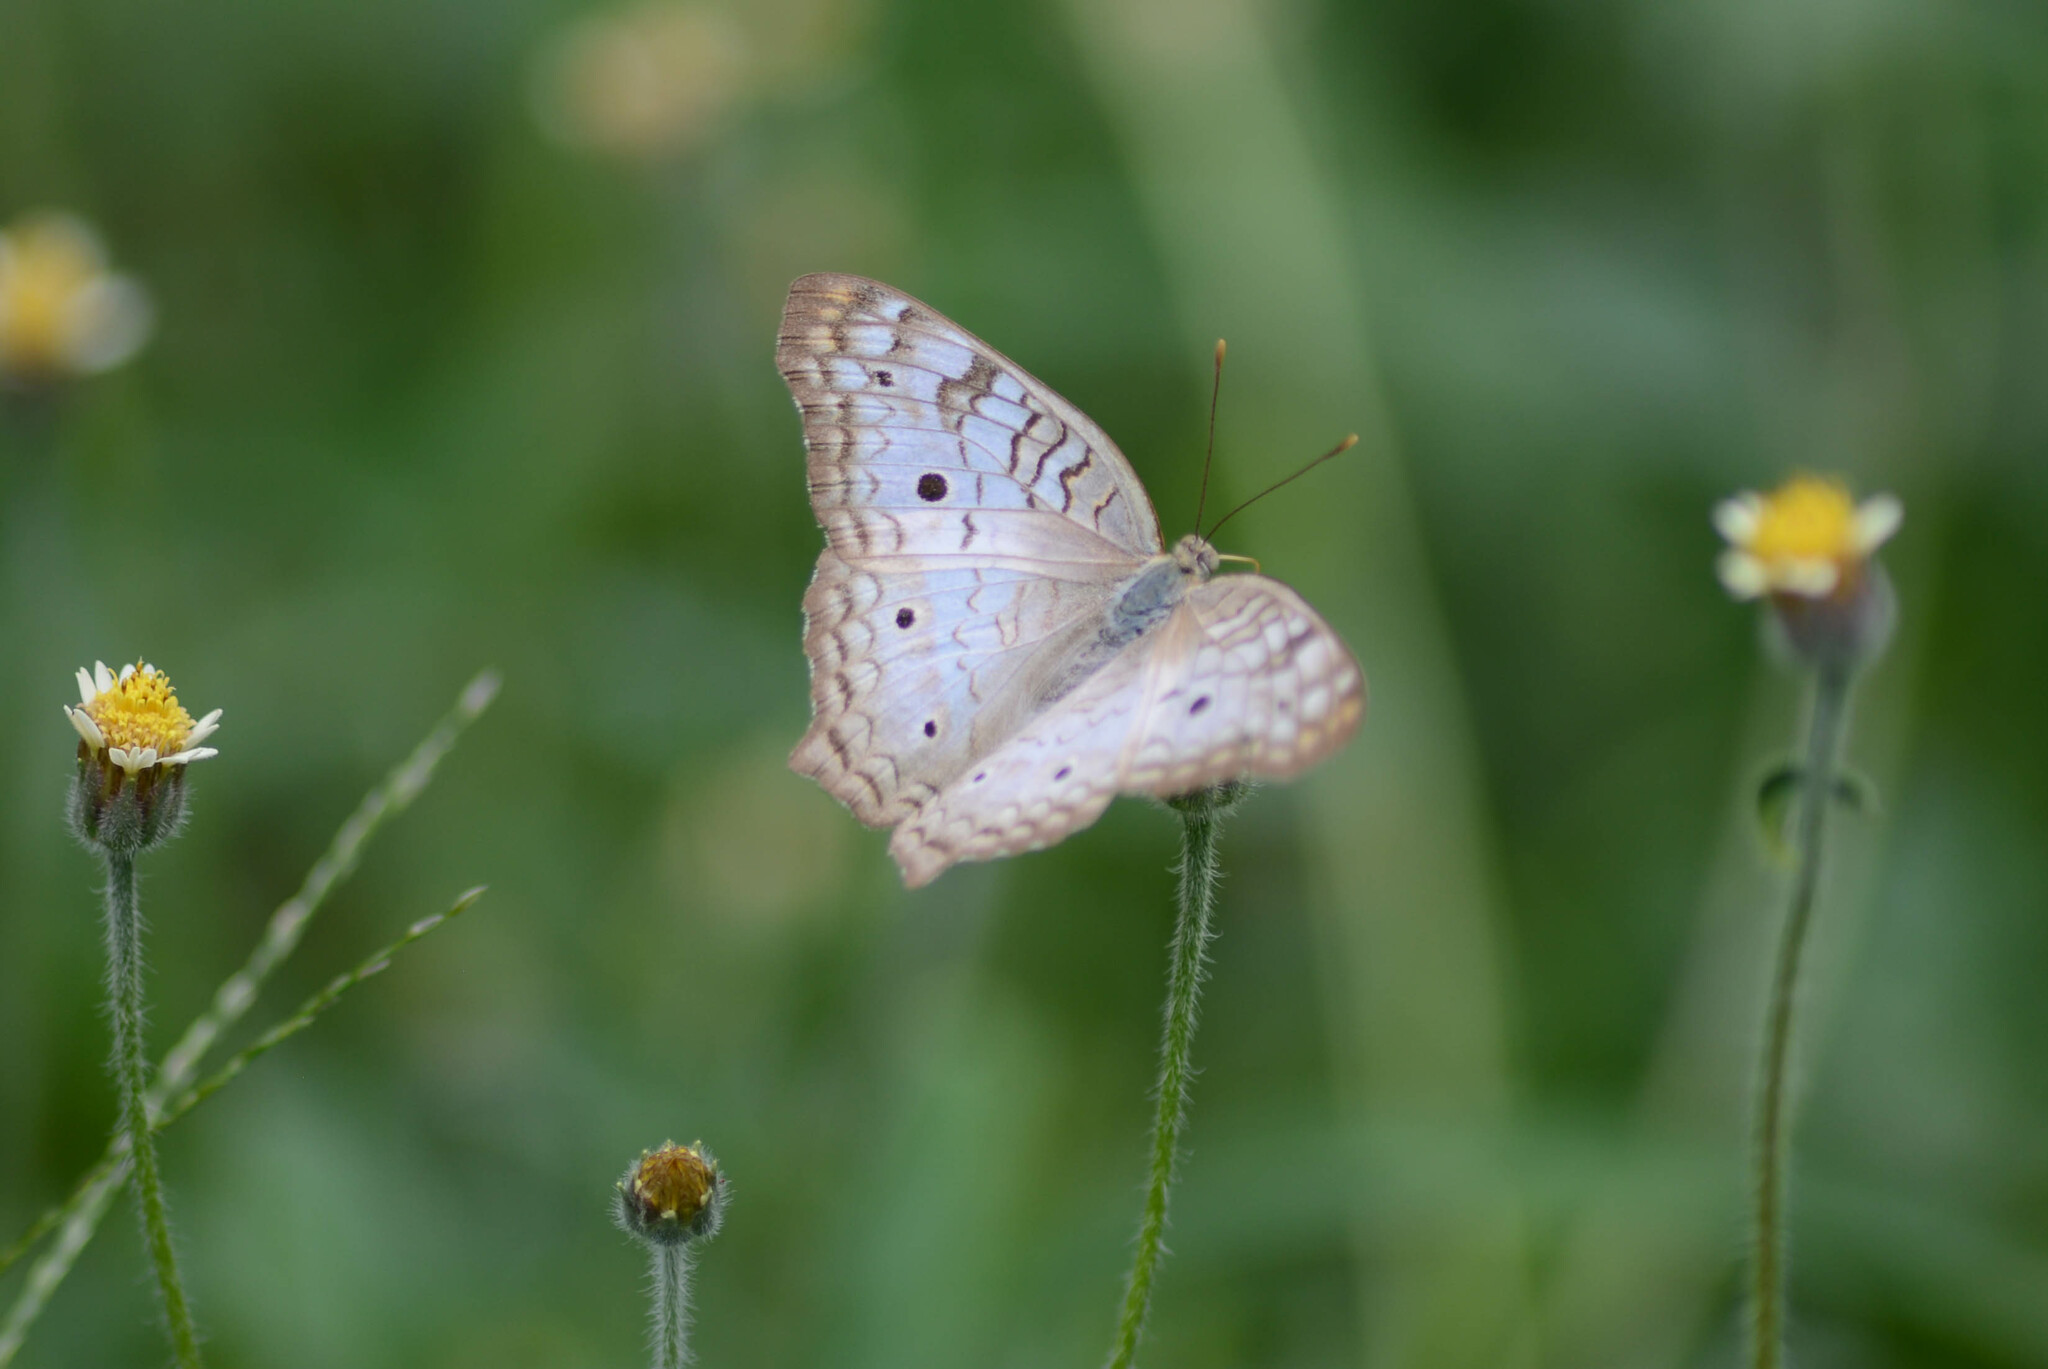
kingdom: Animalia
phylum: Arthropoda
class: Insecta
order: Lepidoptera
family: Nymphalidae
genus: Anartia
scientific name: Anartia jatrophae
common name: White peacock
